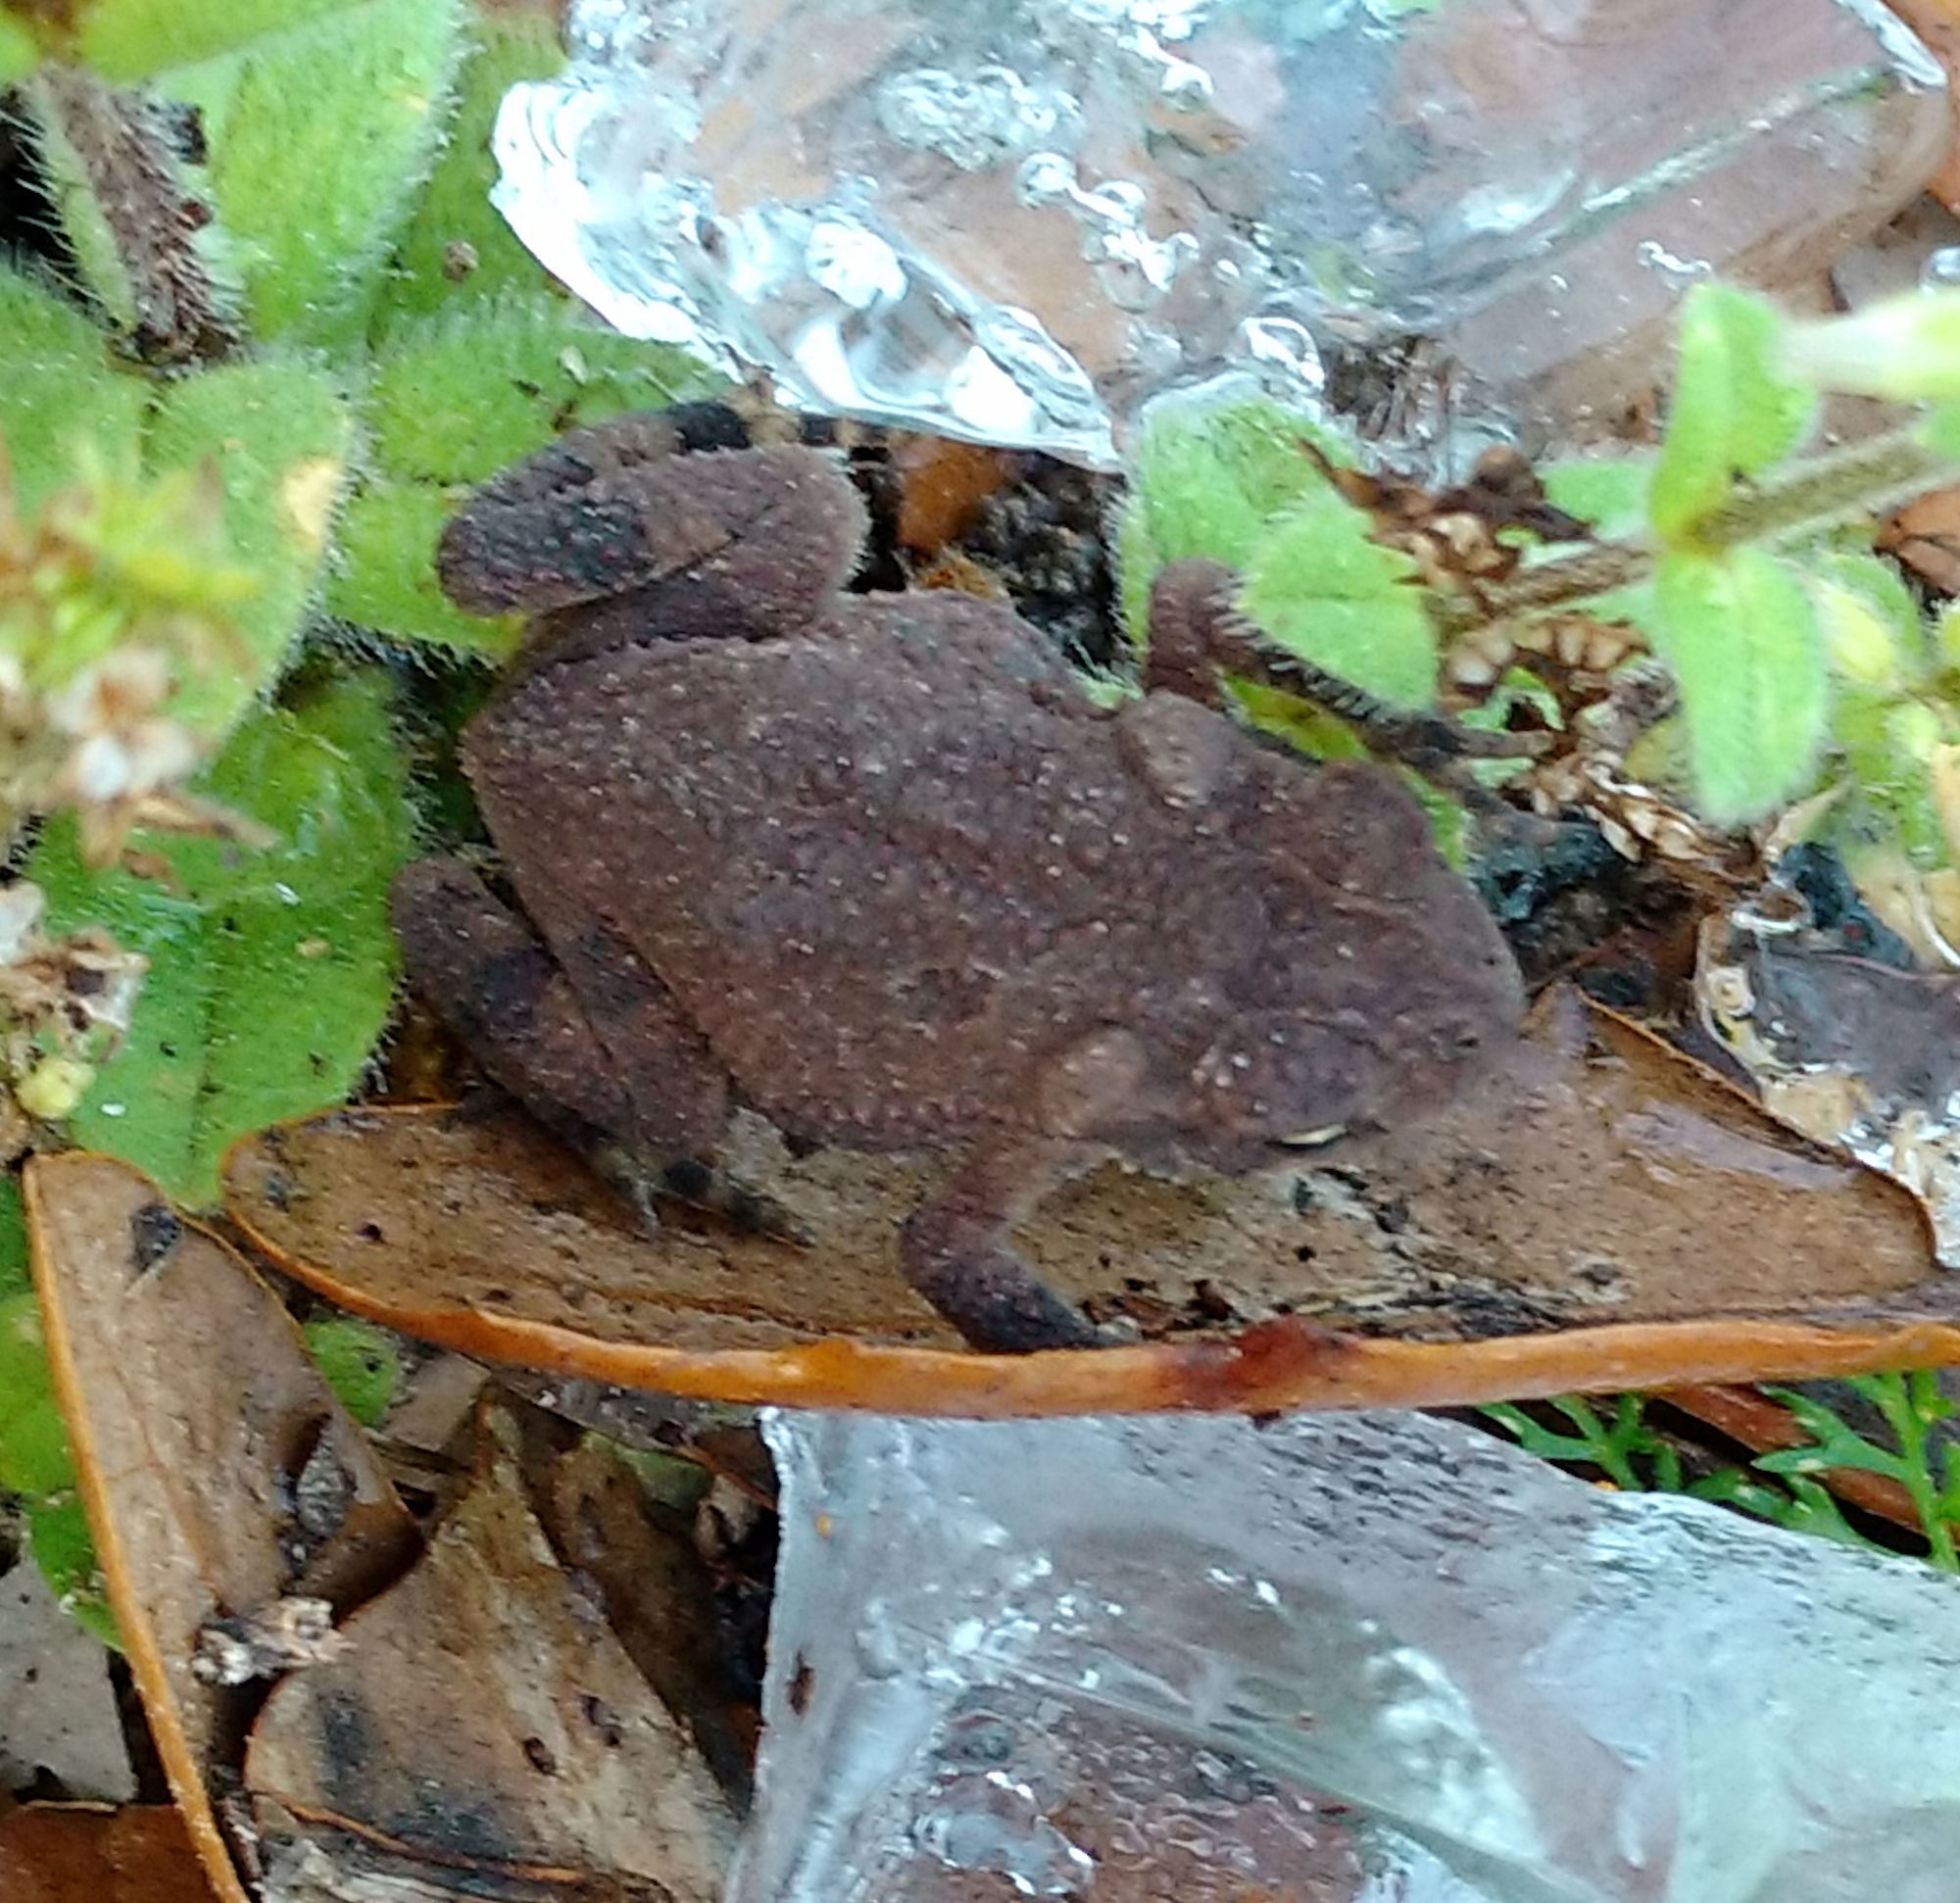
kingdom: Animalia
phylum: Chordata
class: Amphibia
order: Anura
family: Bufonidae
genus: Incilius
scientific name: Incilius nebulifer
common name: Gulf coast toad
